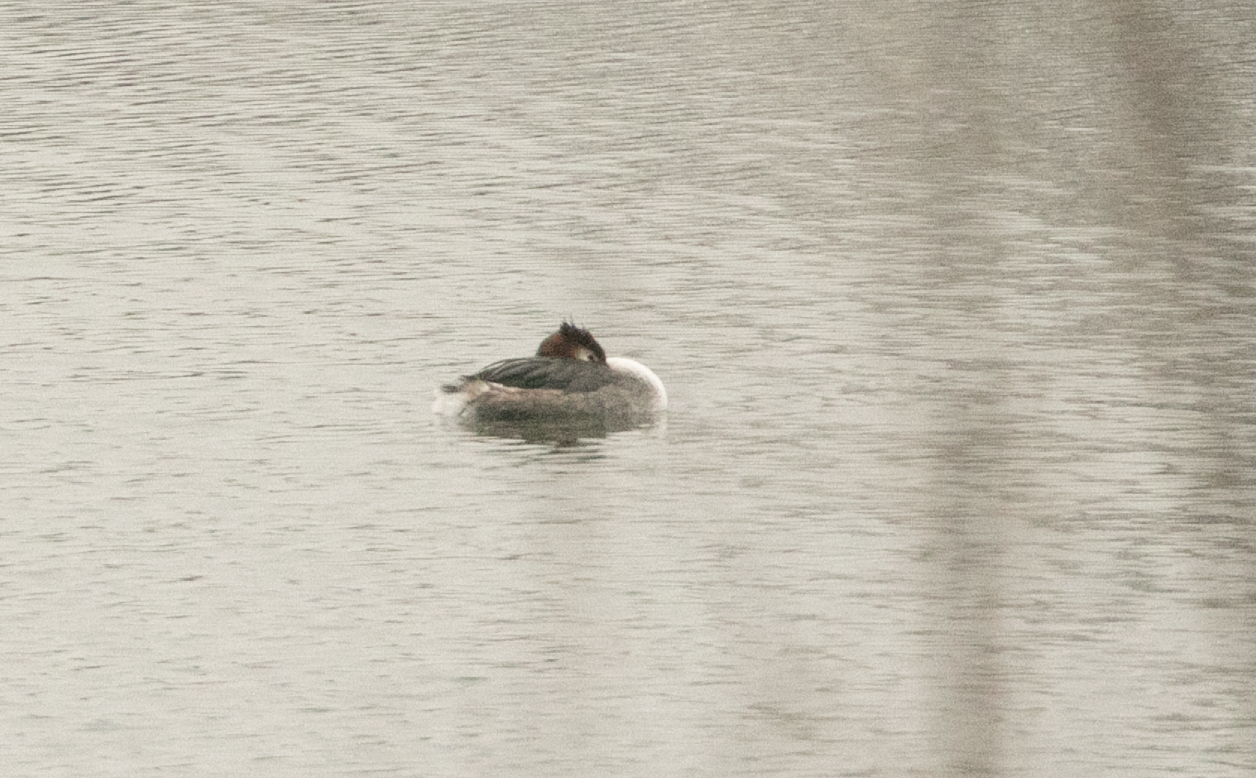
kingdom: Animalia
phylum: Chordata
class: Aves
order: Podicipediformes
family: Podicipedidae
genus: Podiceps
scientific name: Podiceps cristatus
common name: Great crested grebe
